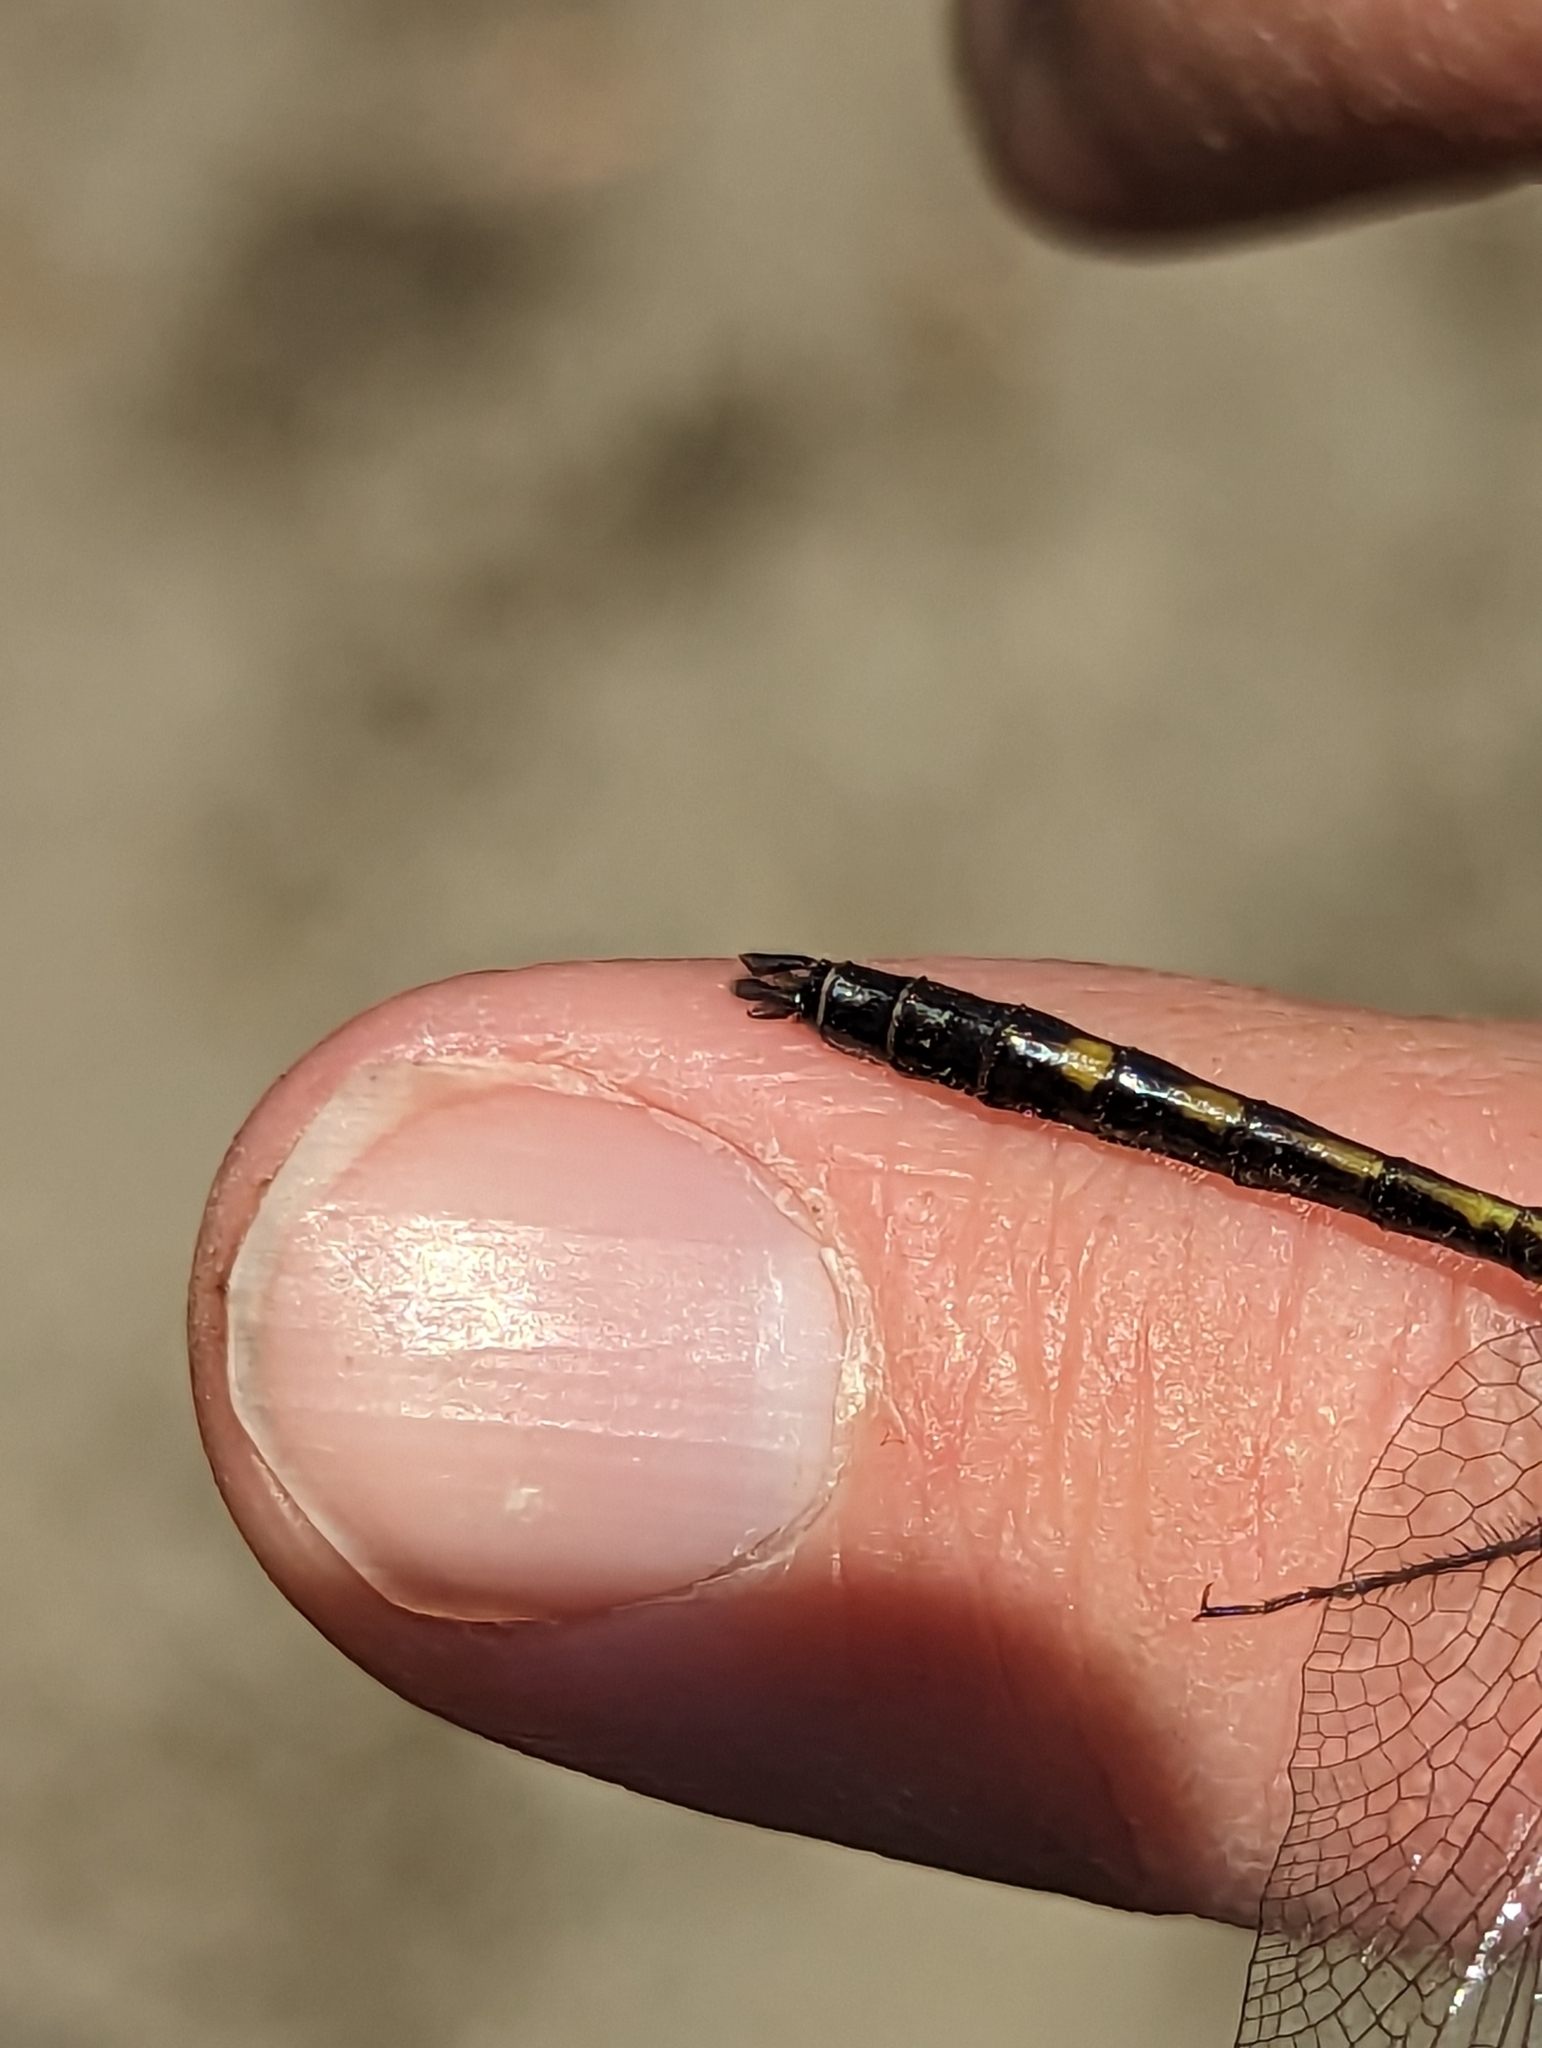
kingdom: Animalia
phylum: Arthropoda
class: Insecta
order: Odonata
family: Libellulidae
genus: Leucorrhinia
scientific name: Leucorrhinia intacta
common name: Dot-tailed whiteface
